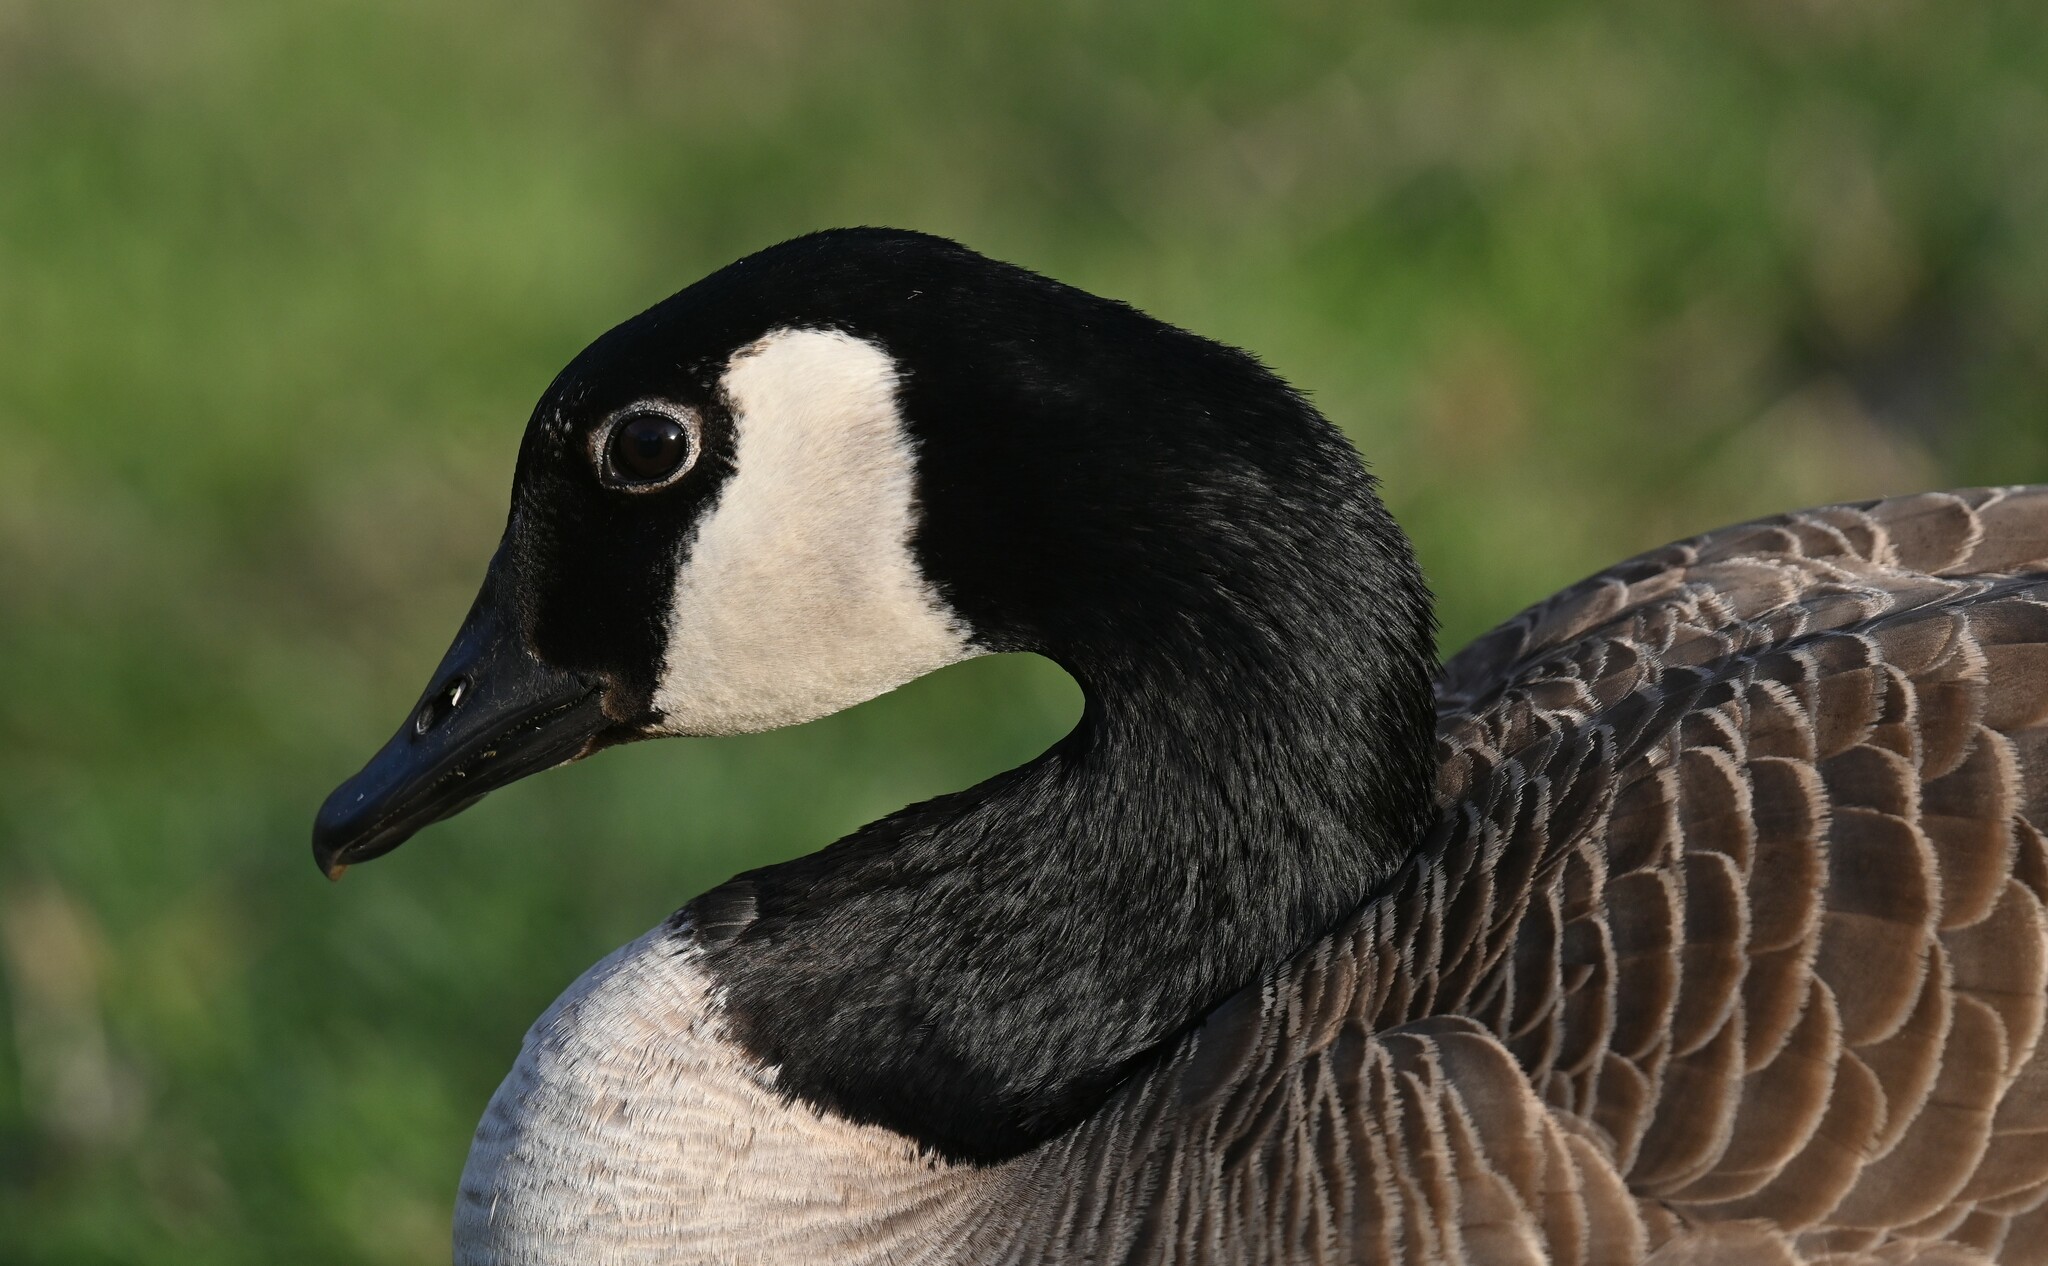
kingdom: Animalia
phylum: Chordata
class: Aves
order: Anseriformes
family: Anatidae
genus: Branta
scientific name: Branta canadensis
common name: Canada goose
